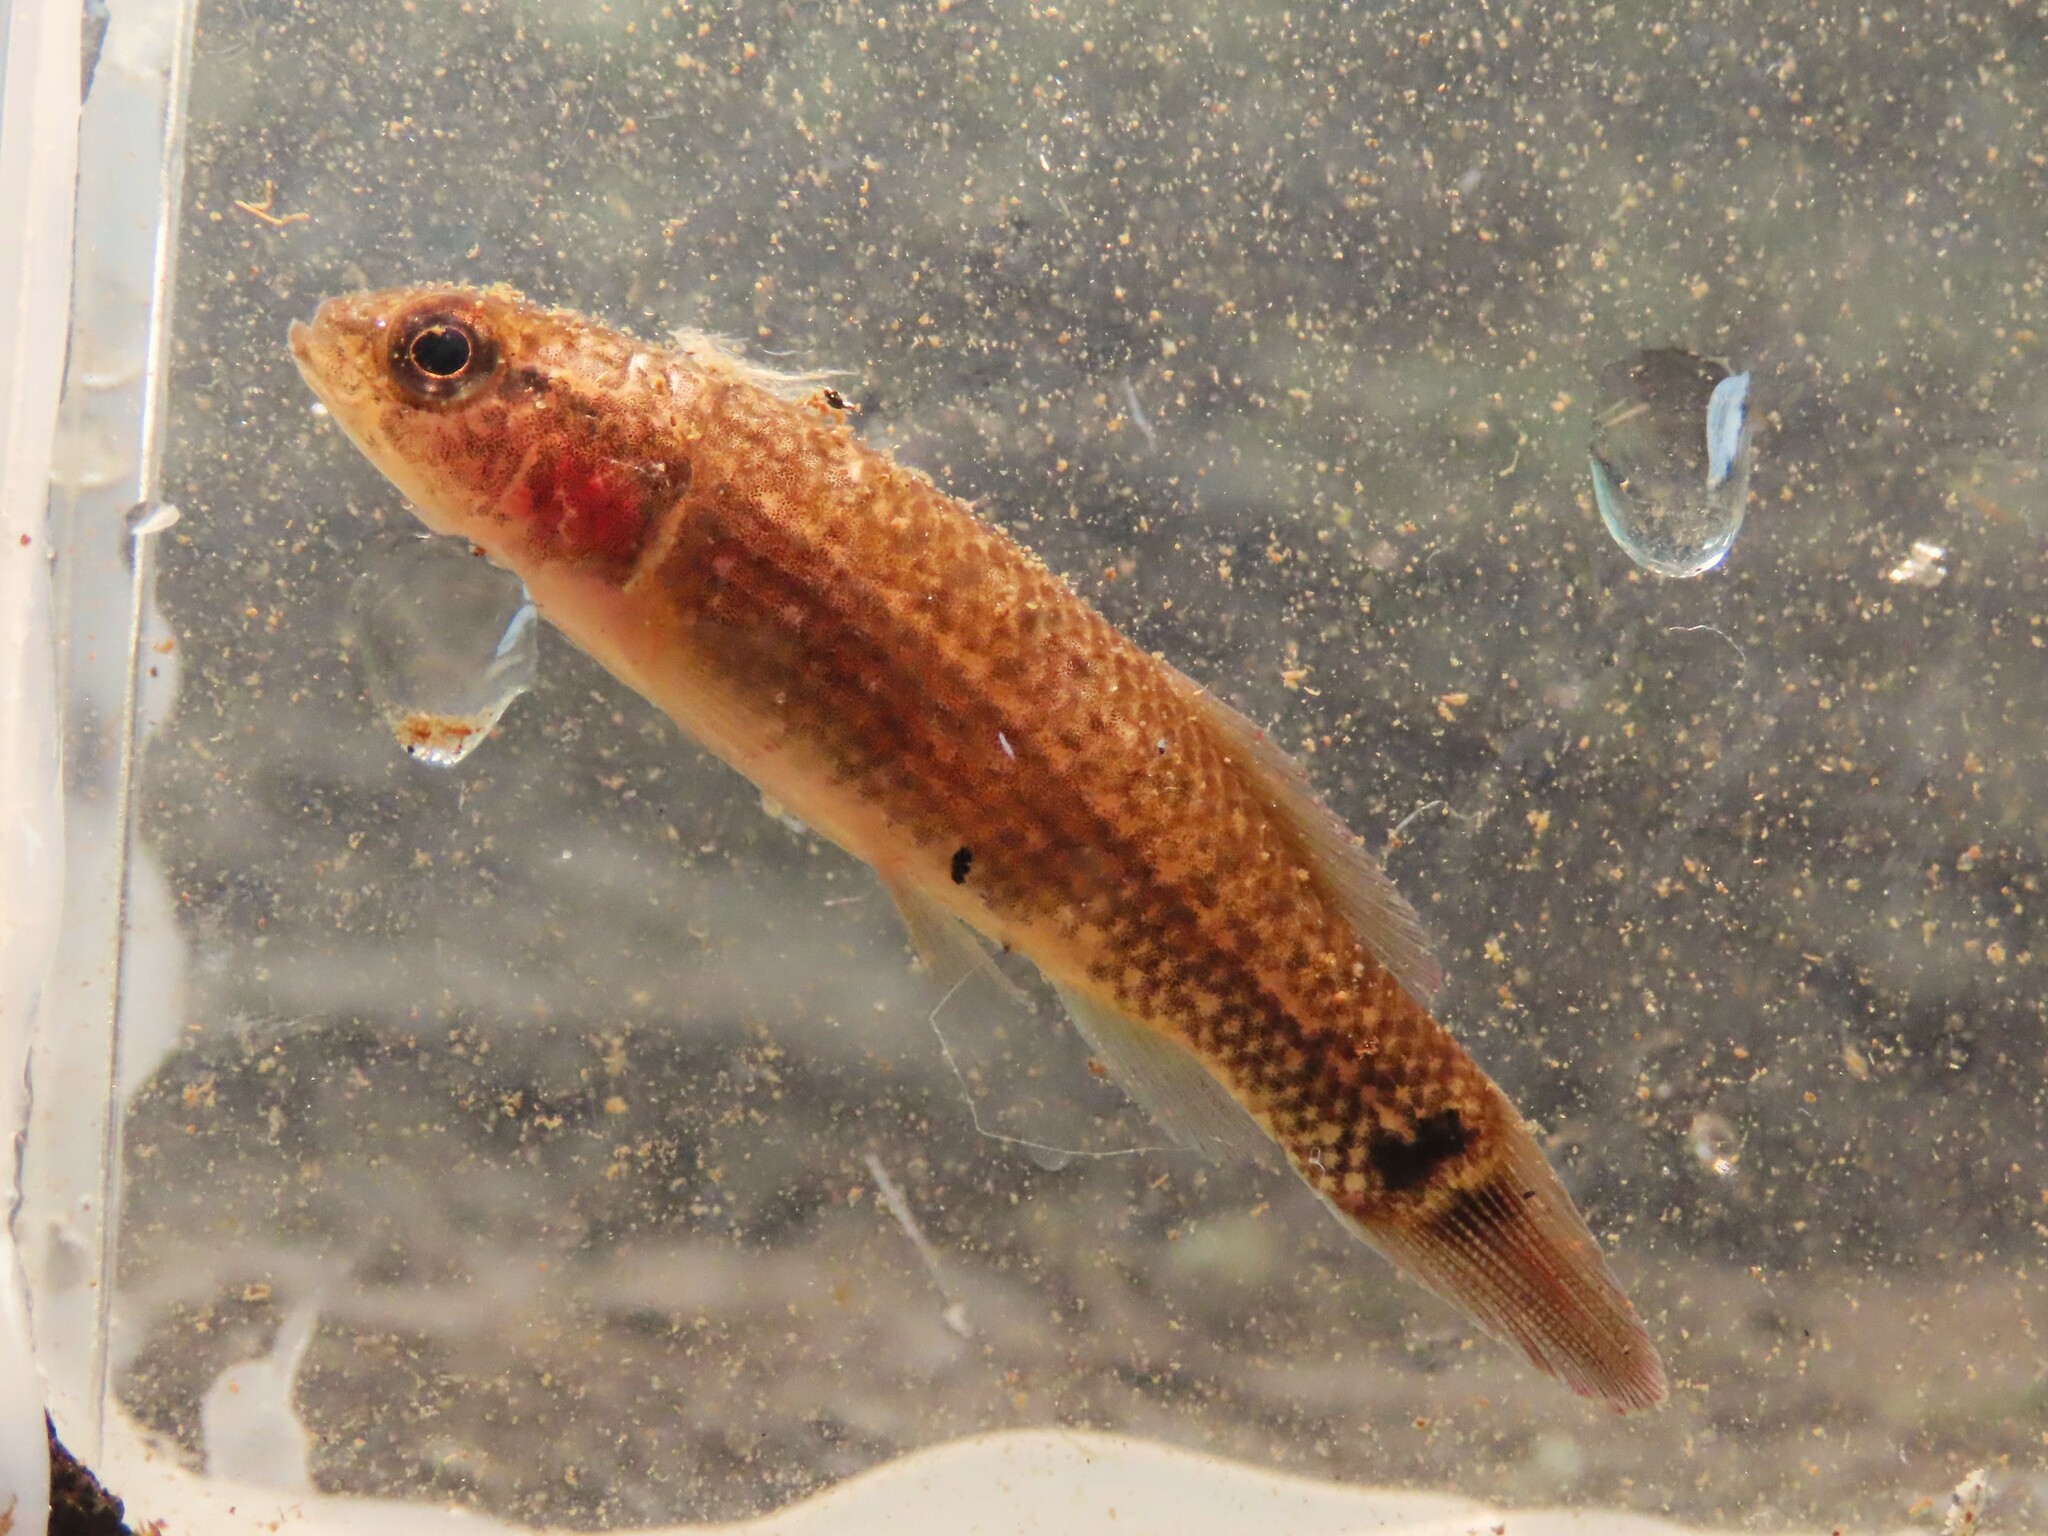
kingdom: Animalia
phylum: Chordata
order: Esociformes
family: Umbridae
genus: Umbra
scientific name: Umbra pygmaea
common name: Eastern mudminnow
